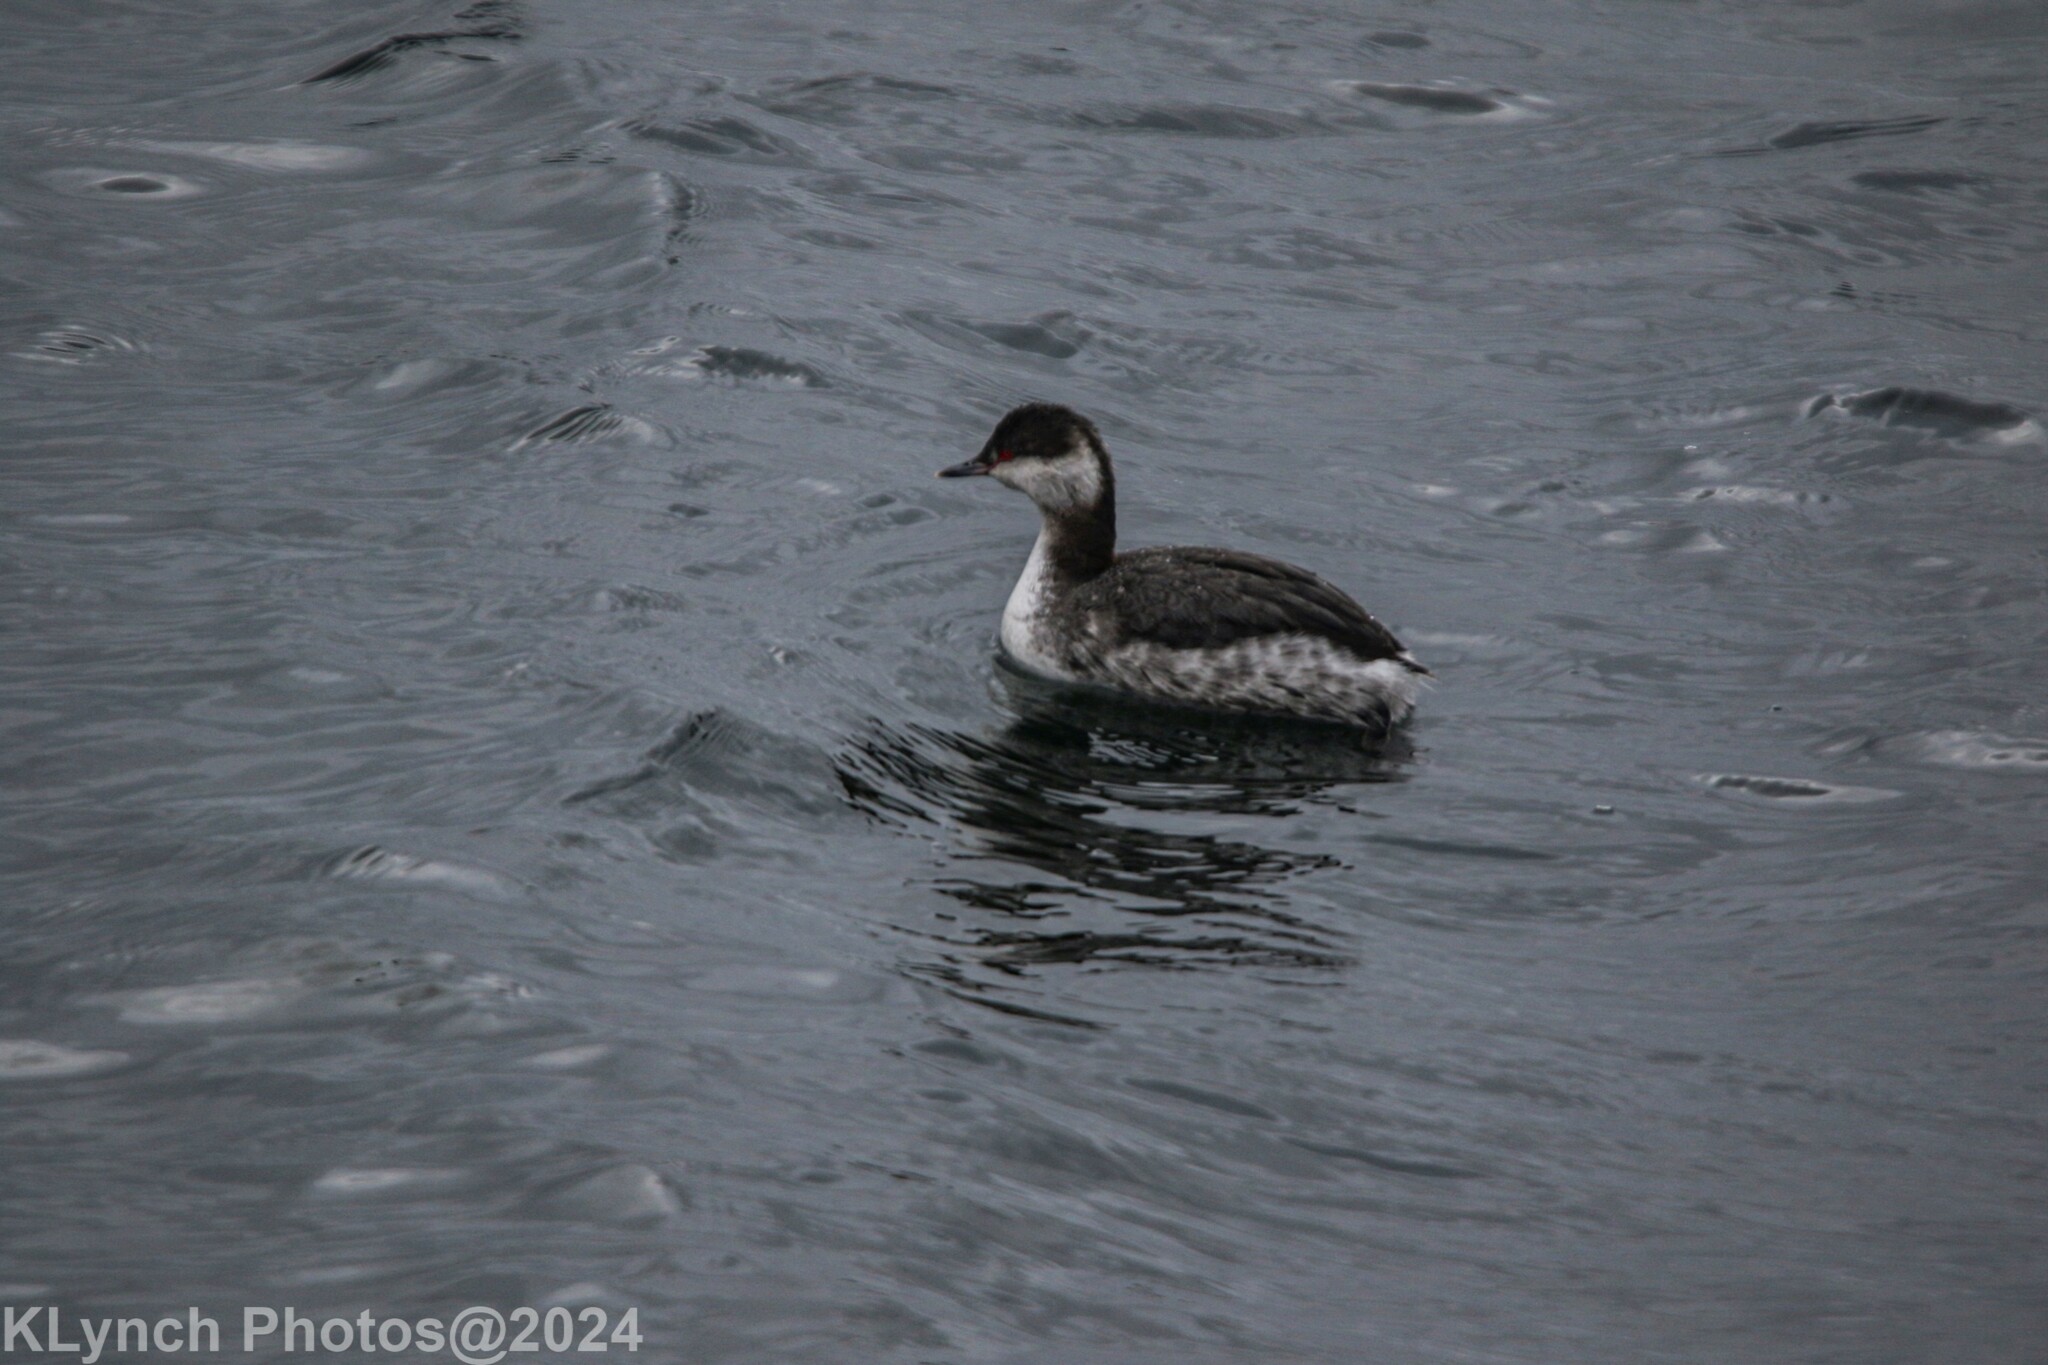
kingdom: Animalia
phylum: Chordata
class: Aves
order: Podicipediformes
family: Podicipedidae
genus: Podiceps
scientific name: Podiceps auritus
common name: Horned grebe
